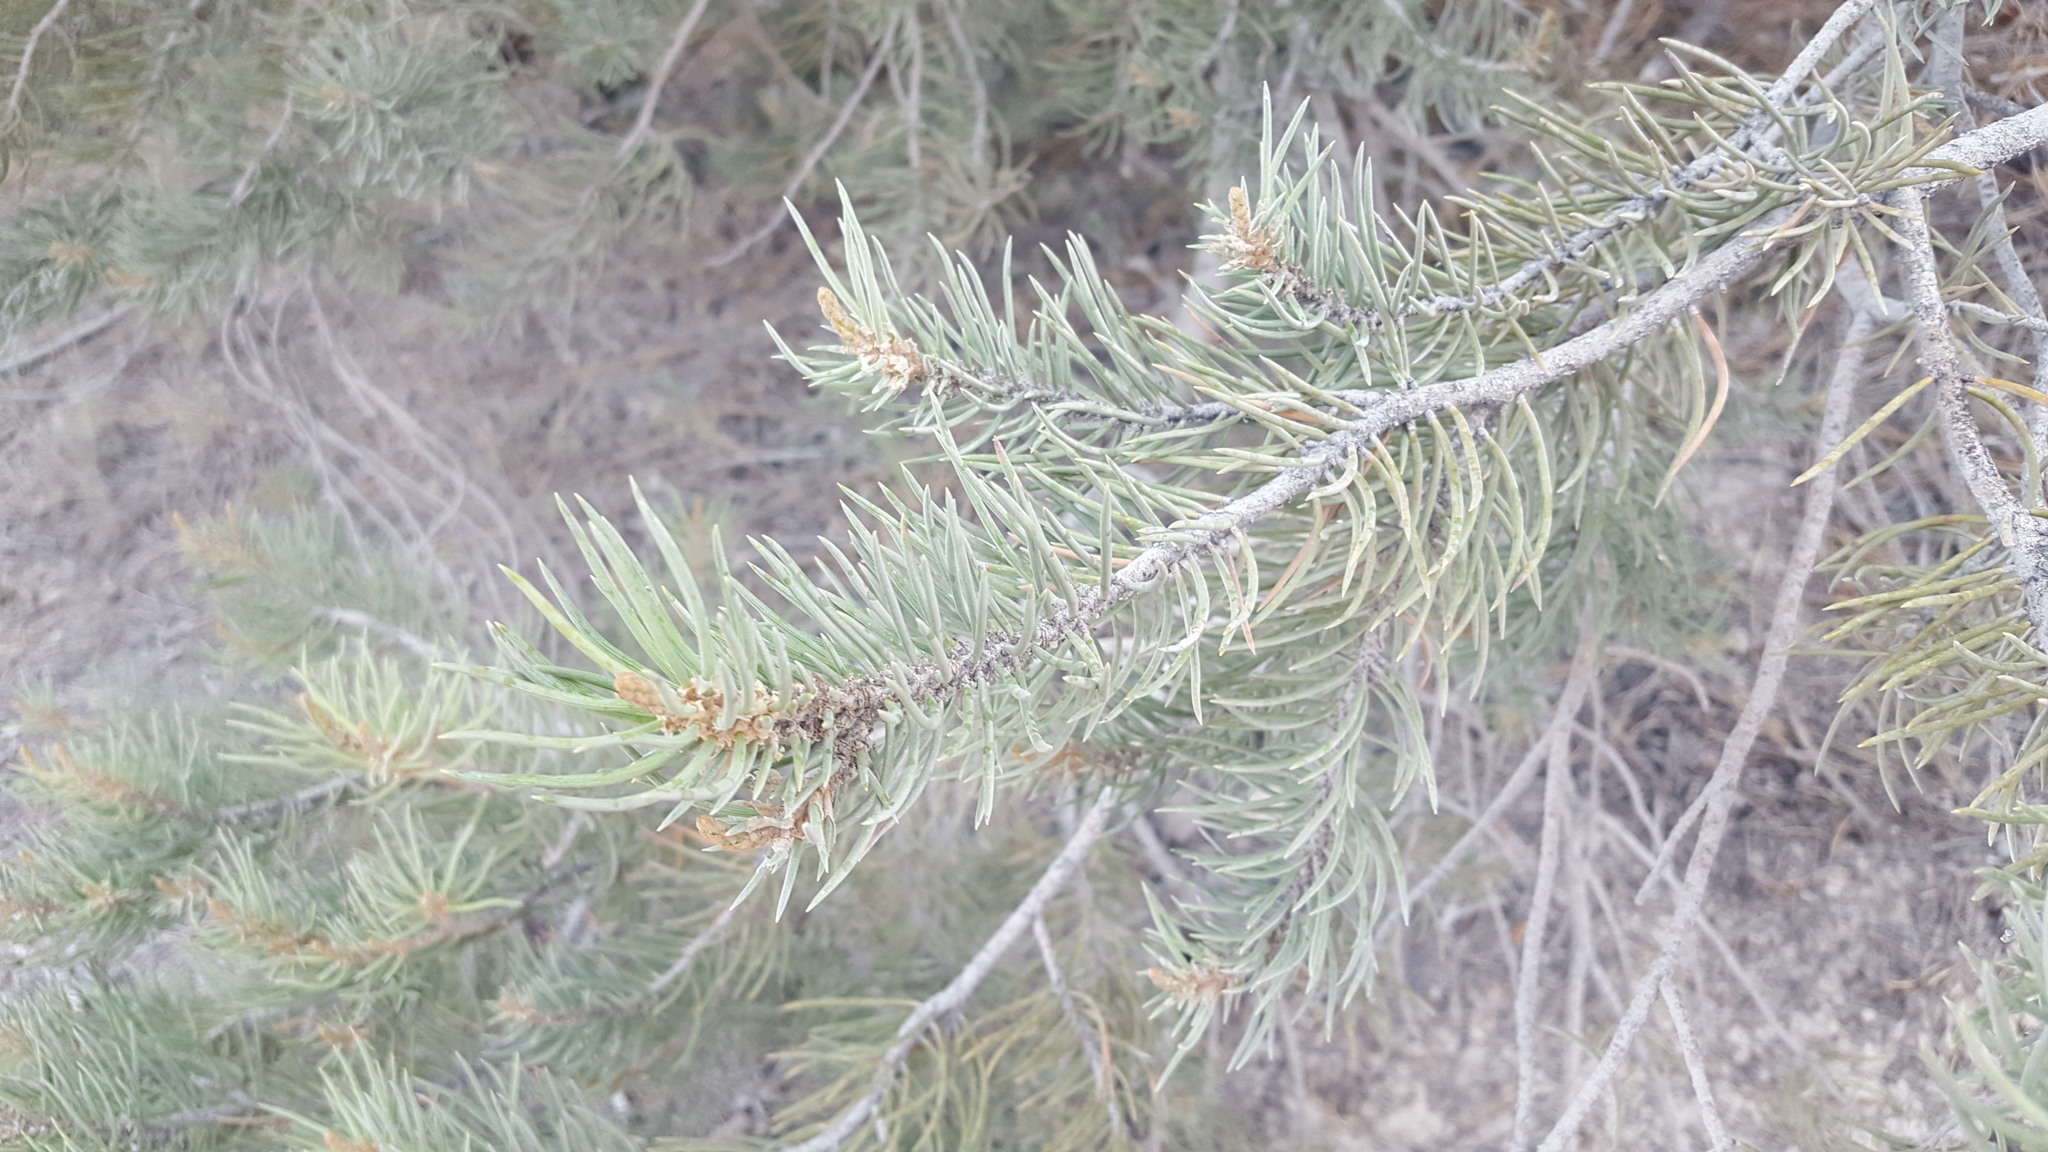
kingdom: Plantae
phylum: Tracheophyta
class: Pinopsida
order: Pinales
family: Pinaceae
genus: Pinus
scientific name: Pinus monophylla
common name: One-leaved nut pine
